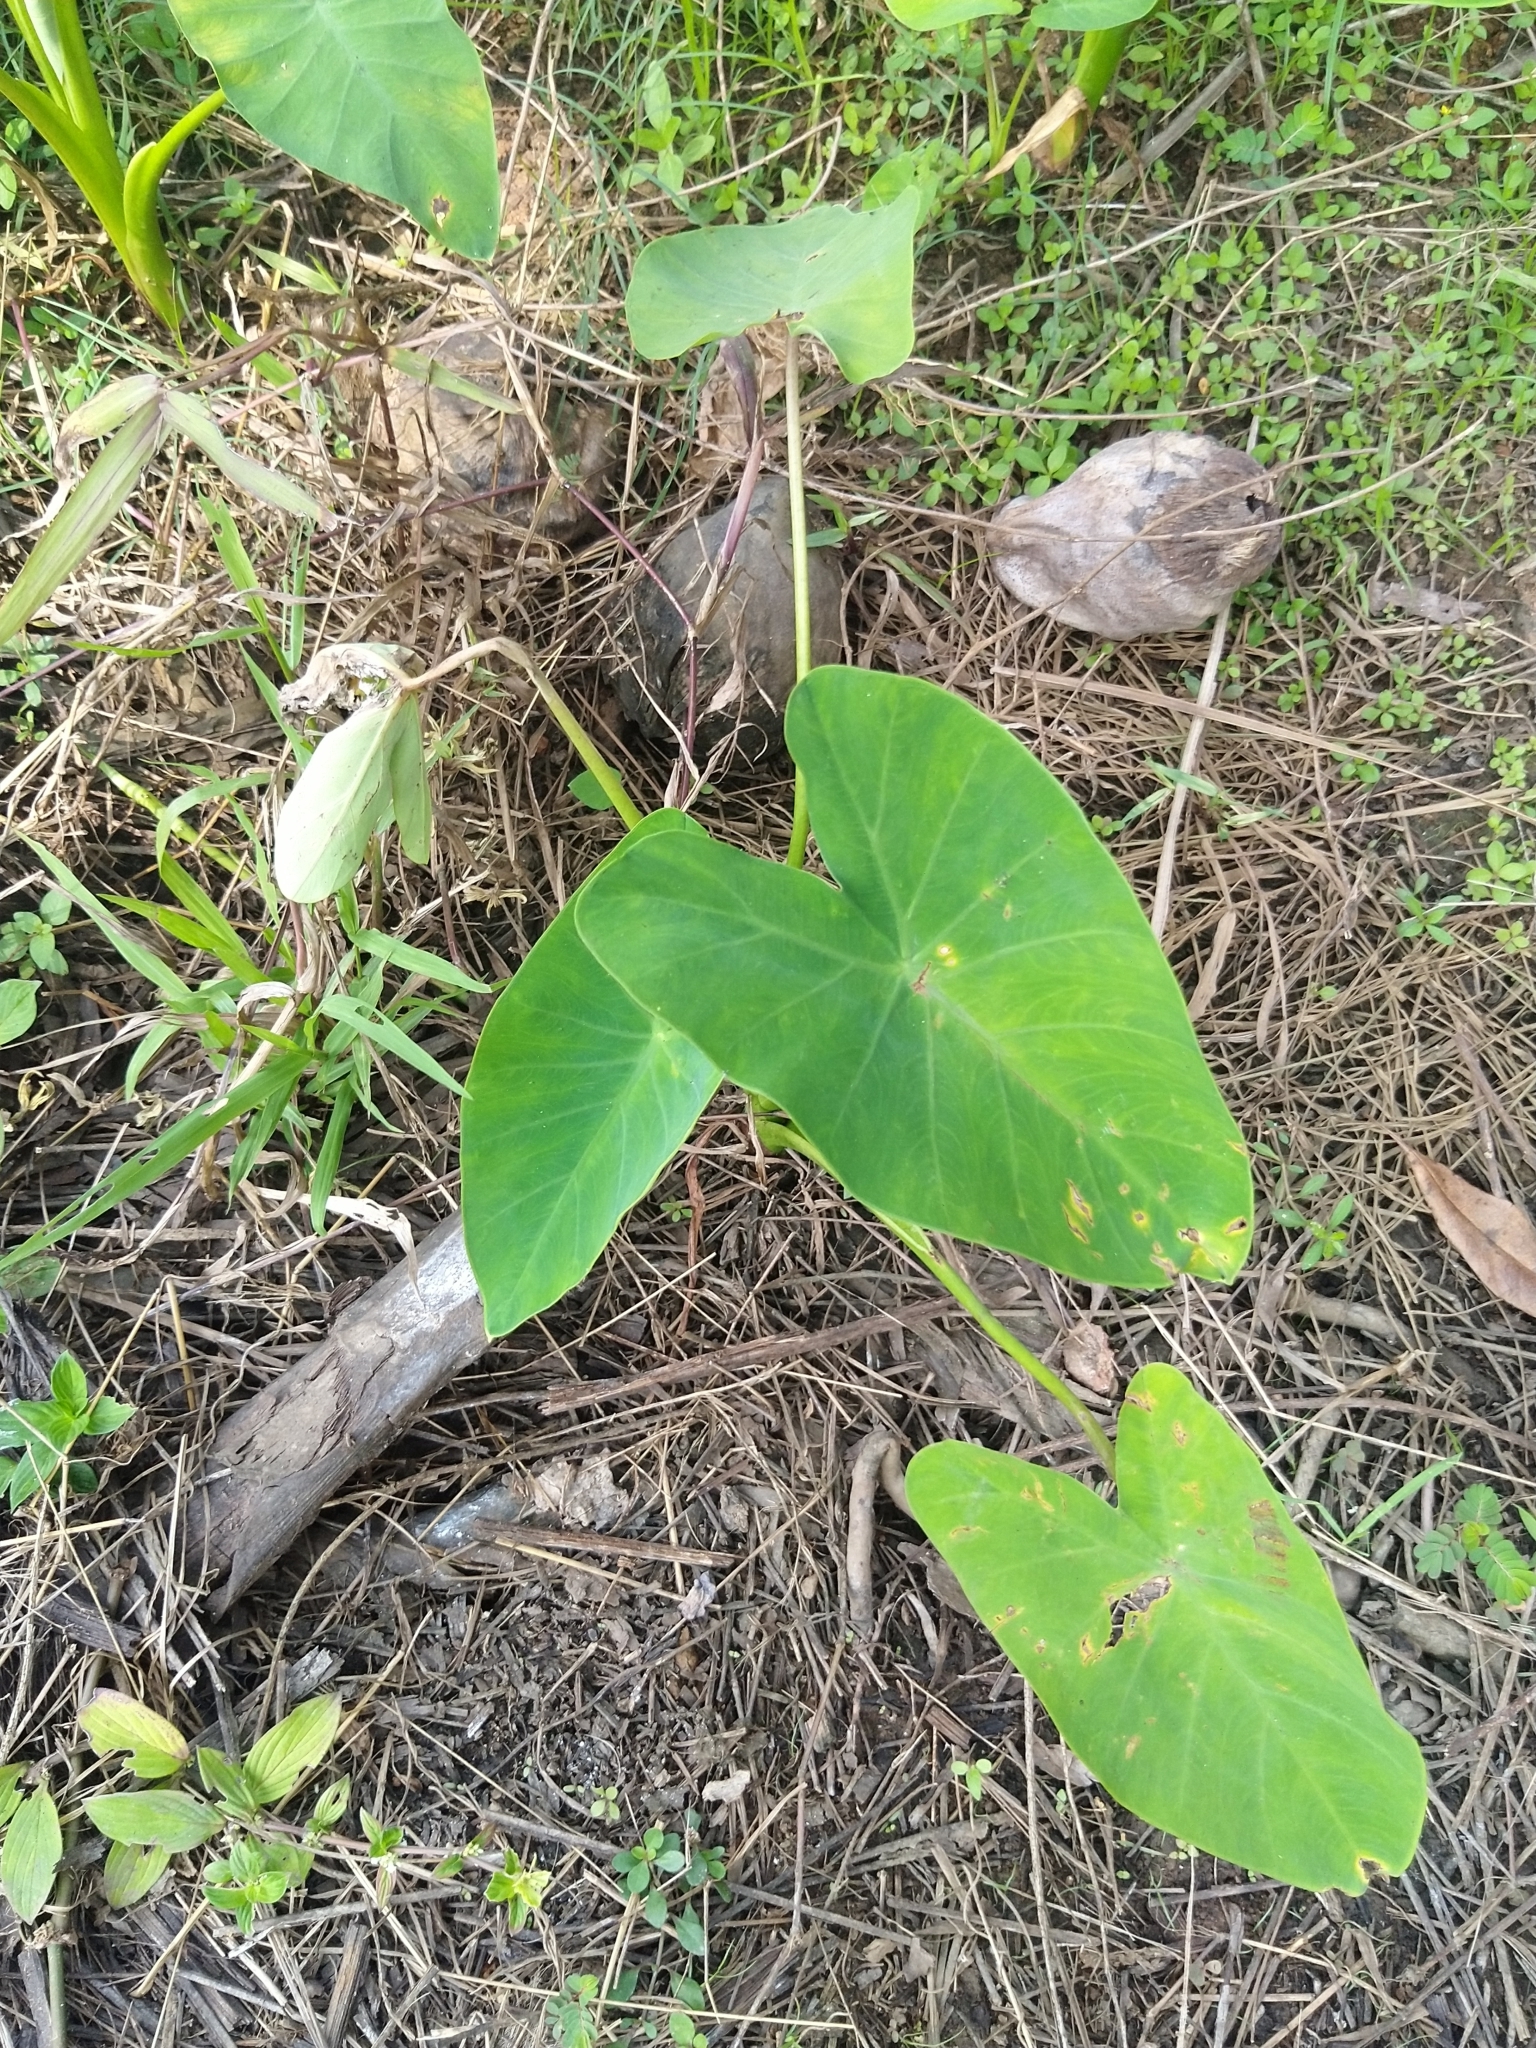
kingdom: Plantae
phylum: Tracheophyta
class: Liliopsida
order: Alismatales
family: Araceae
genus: Colocasia
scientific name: Colocasia esculenta
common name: Taro
